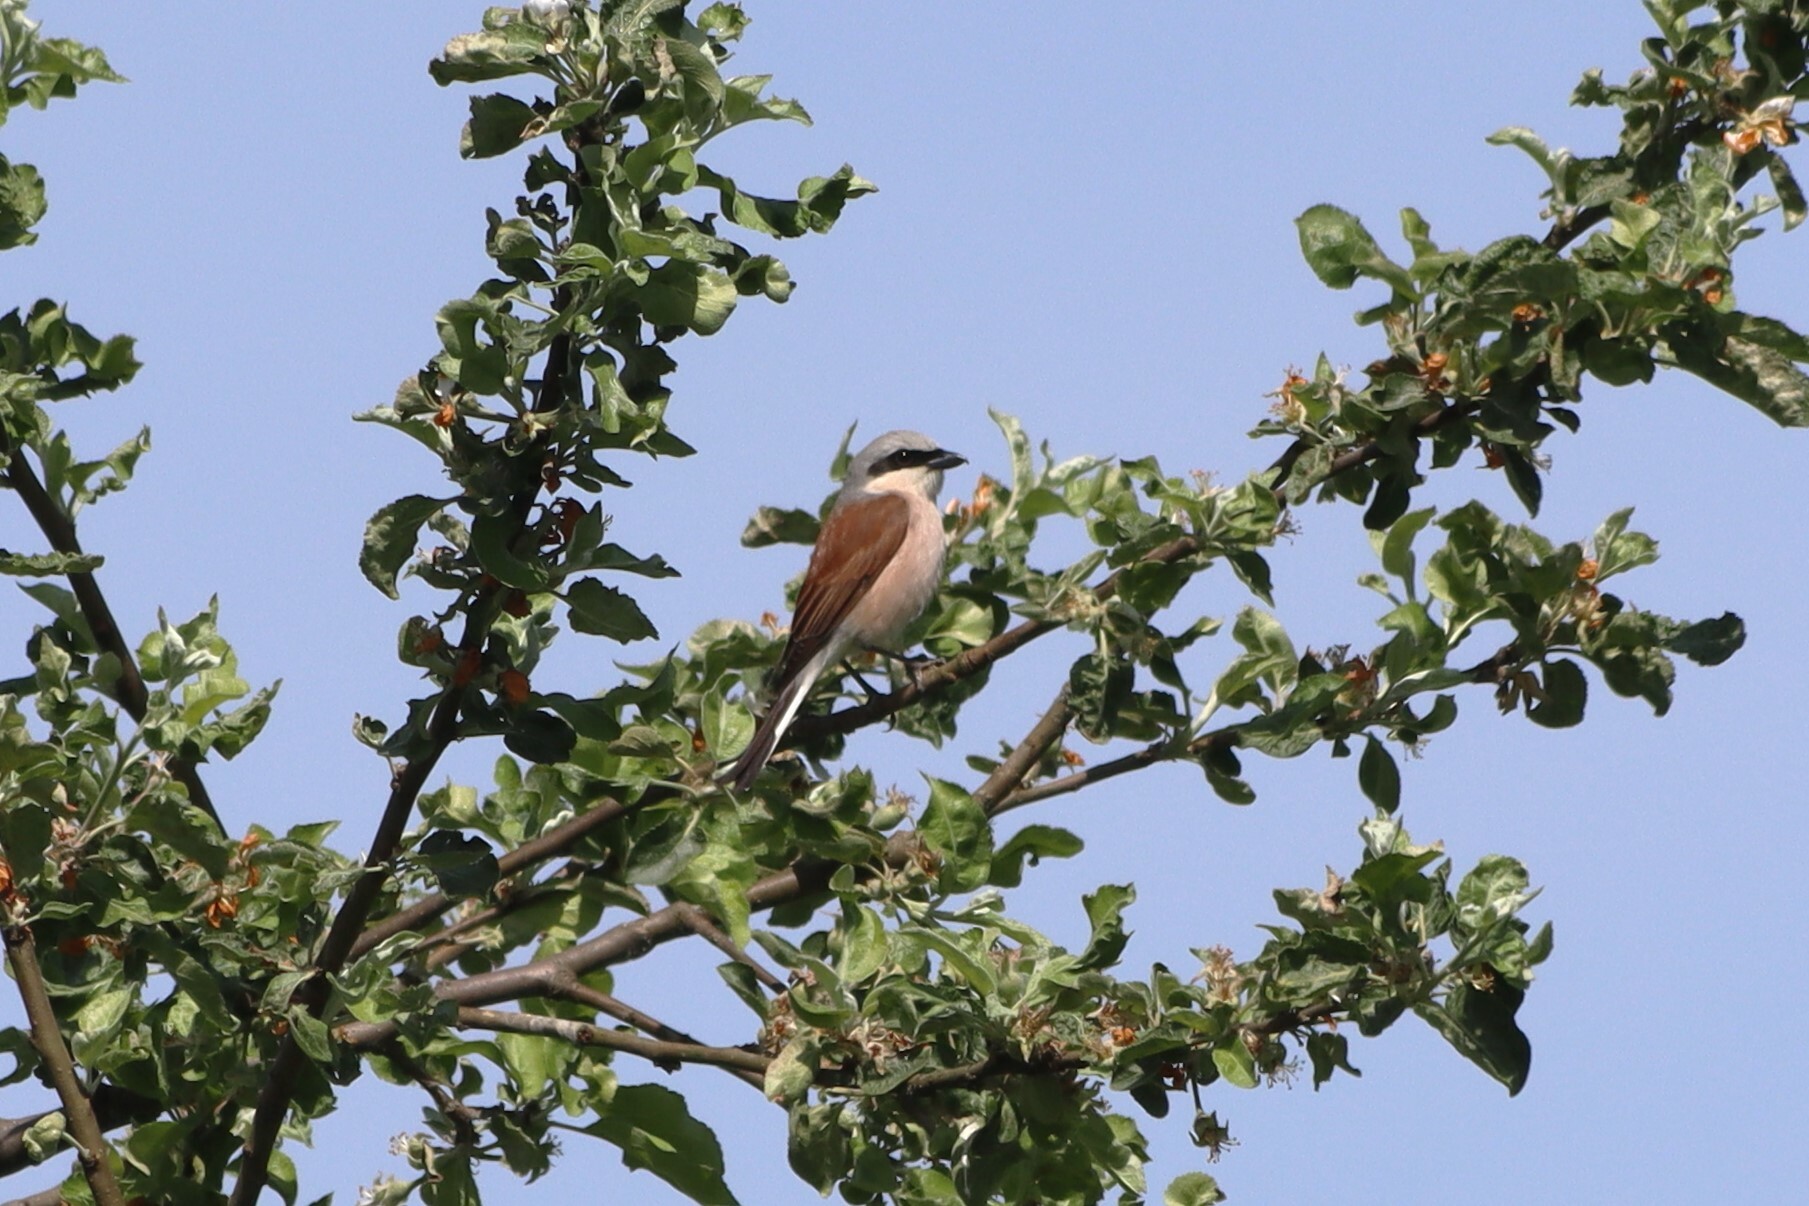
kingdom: Animalia
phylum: Chordata
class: Aves
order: Passeriformes
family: Laniidae
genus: Lanius
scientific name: Lanius collurio
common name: Red-backed shrike
